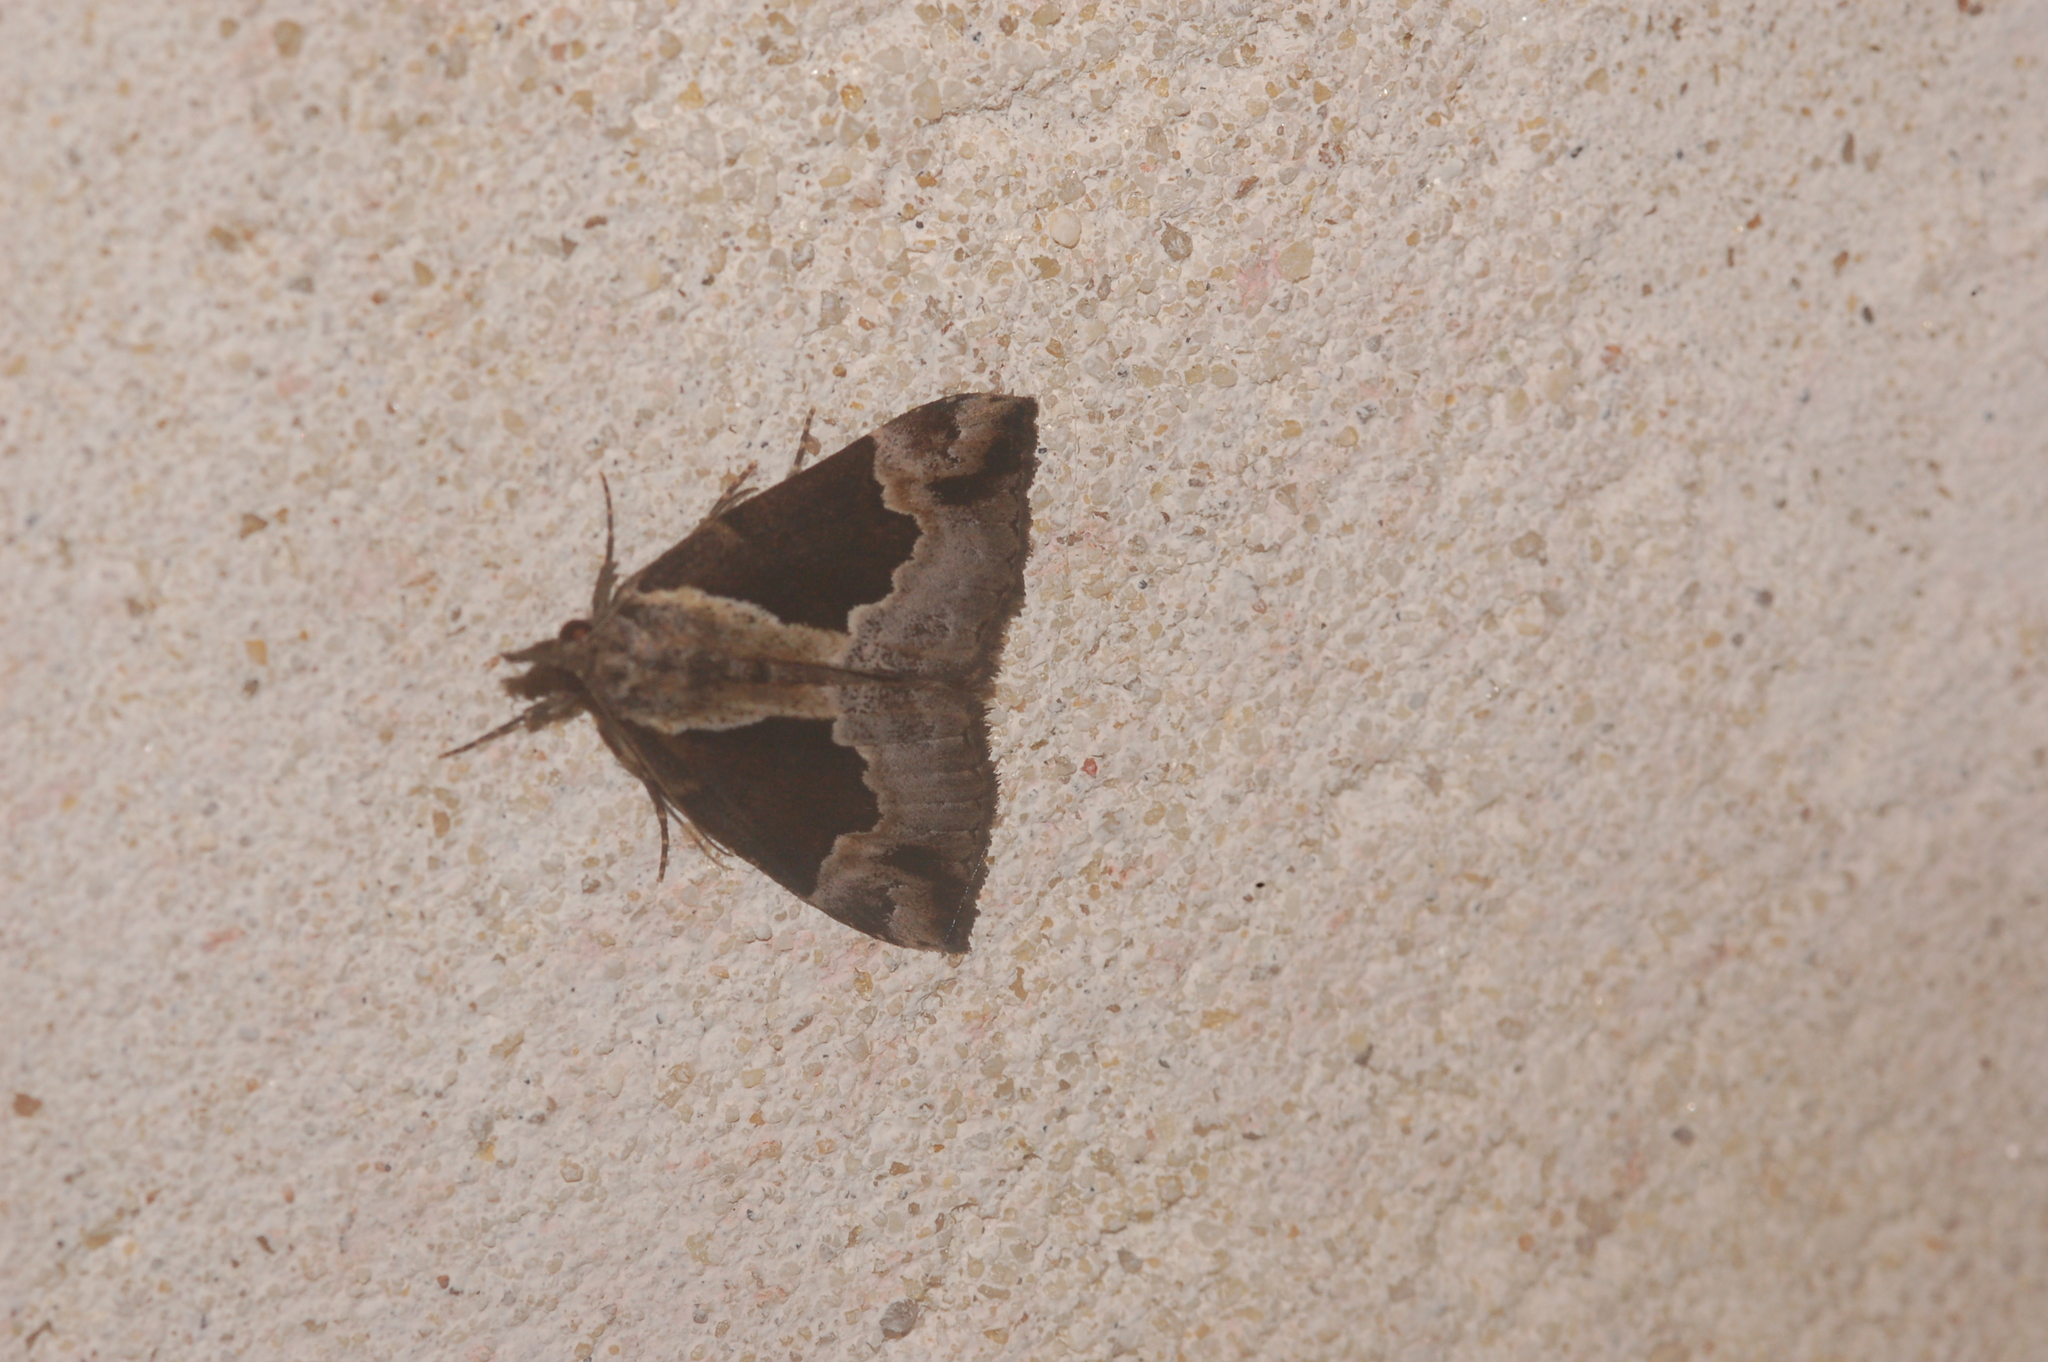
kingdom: Animalia
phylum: Arthropoda
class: Insecta
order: Lepidoptera
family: Erebidae
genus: Hypena
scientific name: Hypena baltimoralis
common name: Baltimore snout
